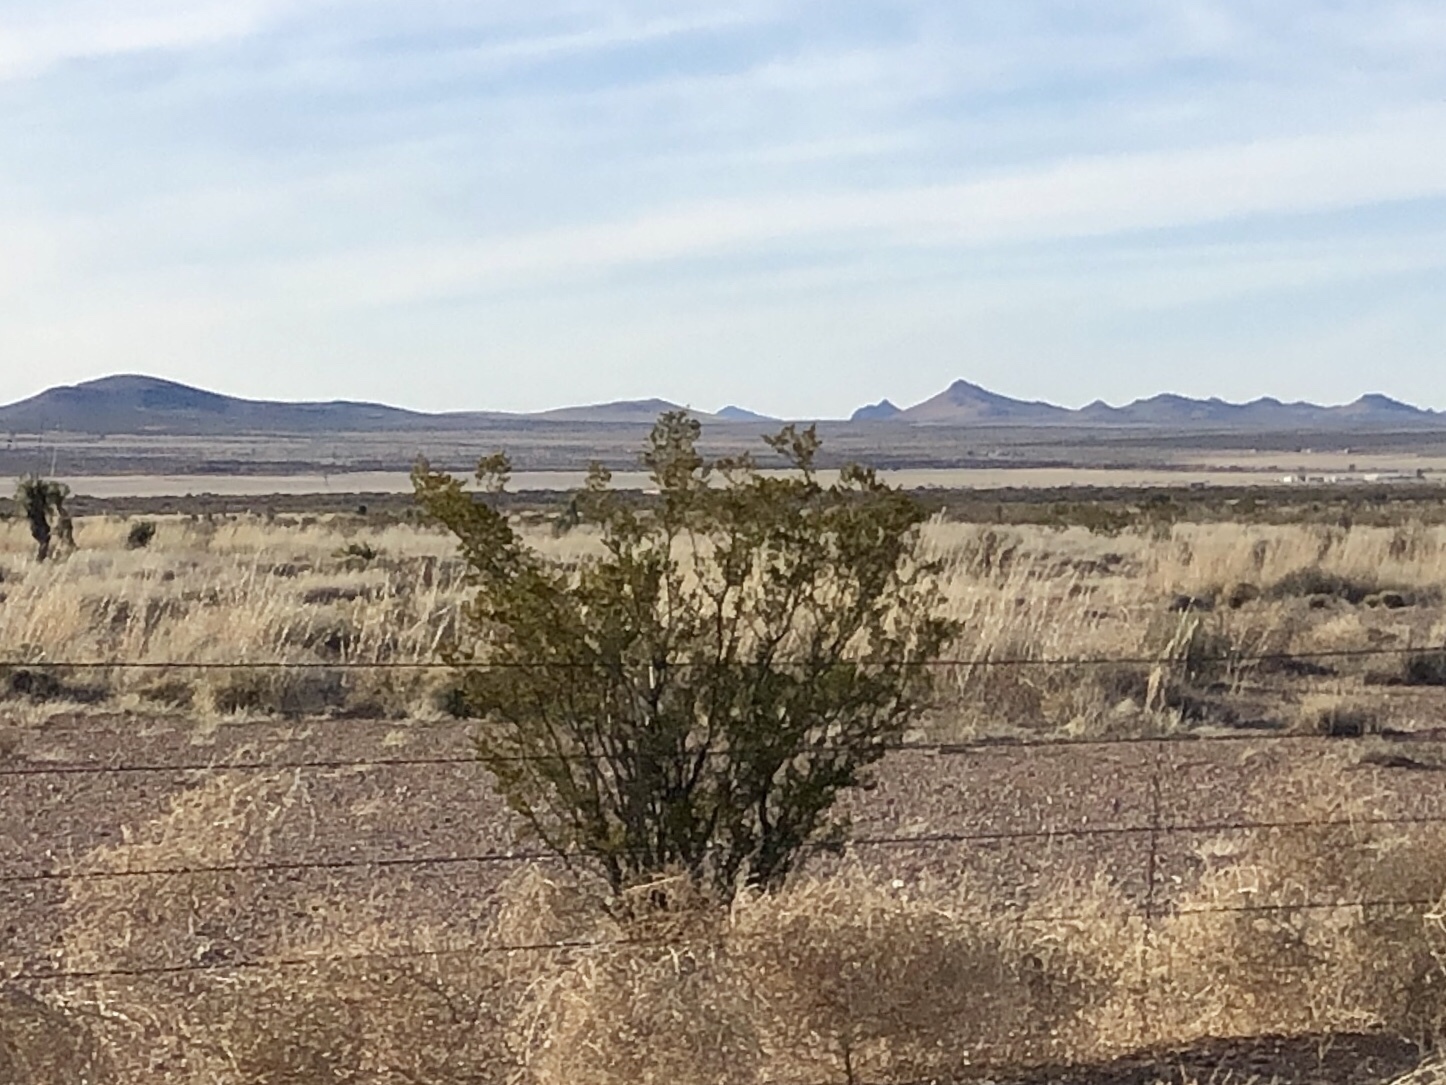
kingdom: Plantae
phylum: Tracheophyta
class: Magnoliopsida
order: Zygophyllales
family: Zygophyllaceae
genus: Larrea
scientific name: Larrea tridentata
